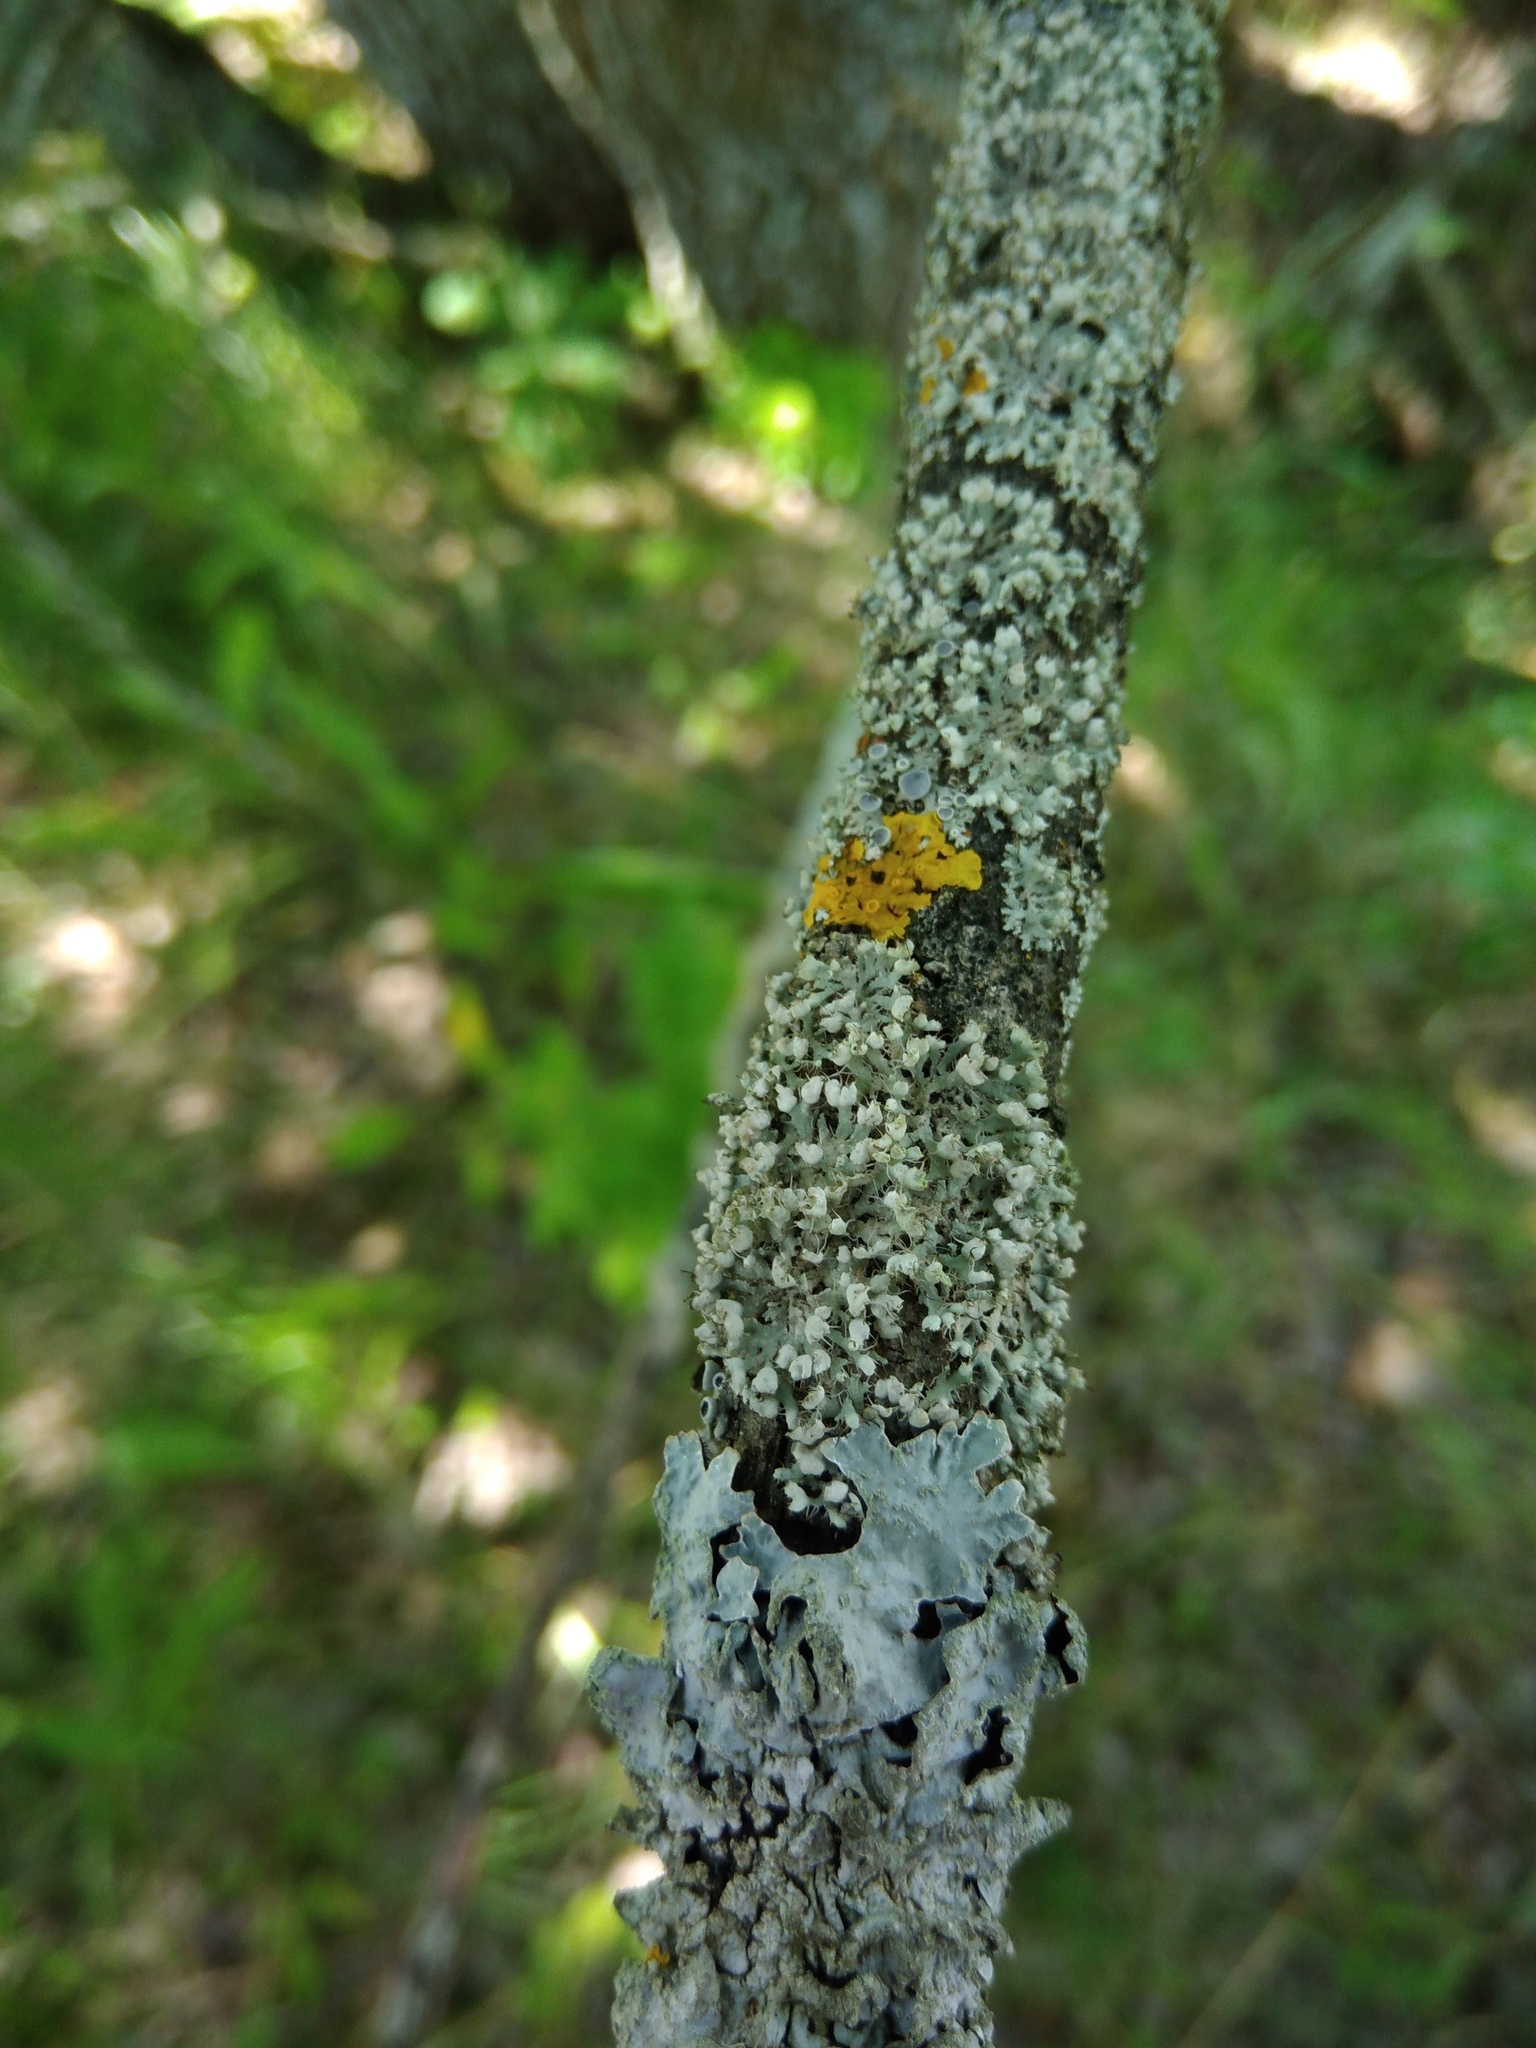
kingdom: Fungi
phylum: Ascomycota
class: Lecanoromycetes
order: Caliciales
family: Physciaceae
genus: Physcia
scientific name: Physcia adscendens
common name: Hooded rosette lichen
